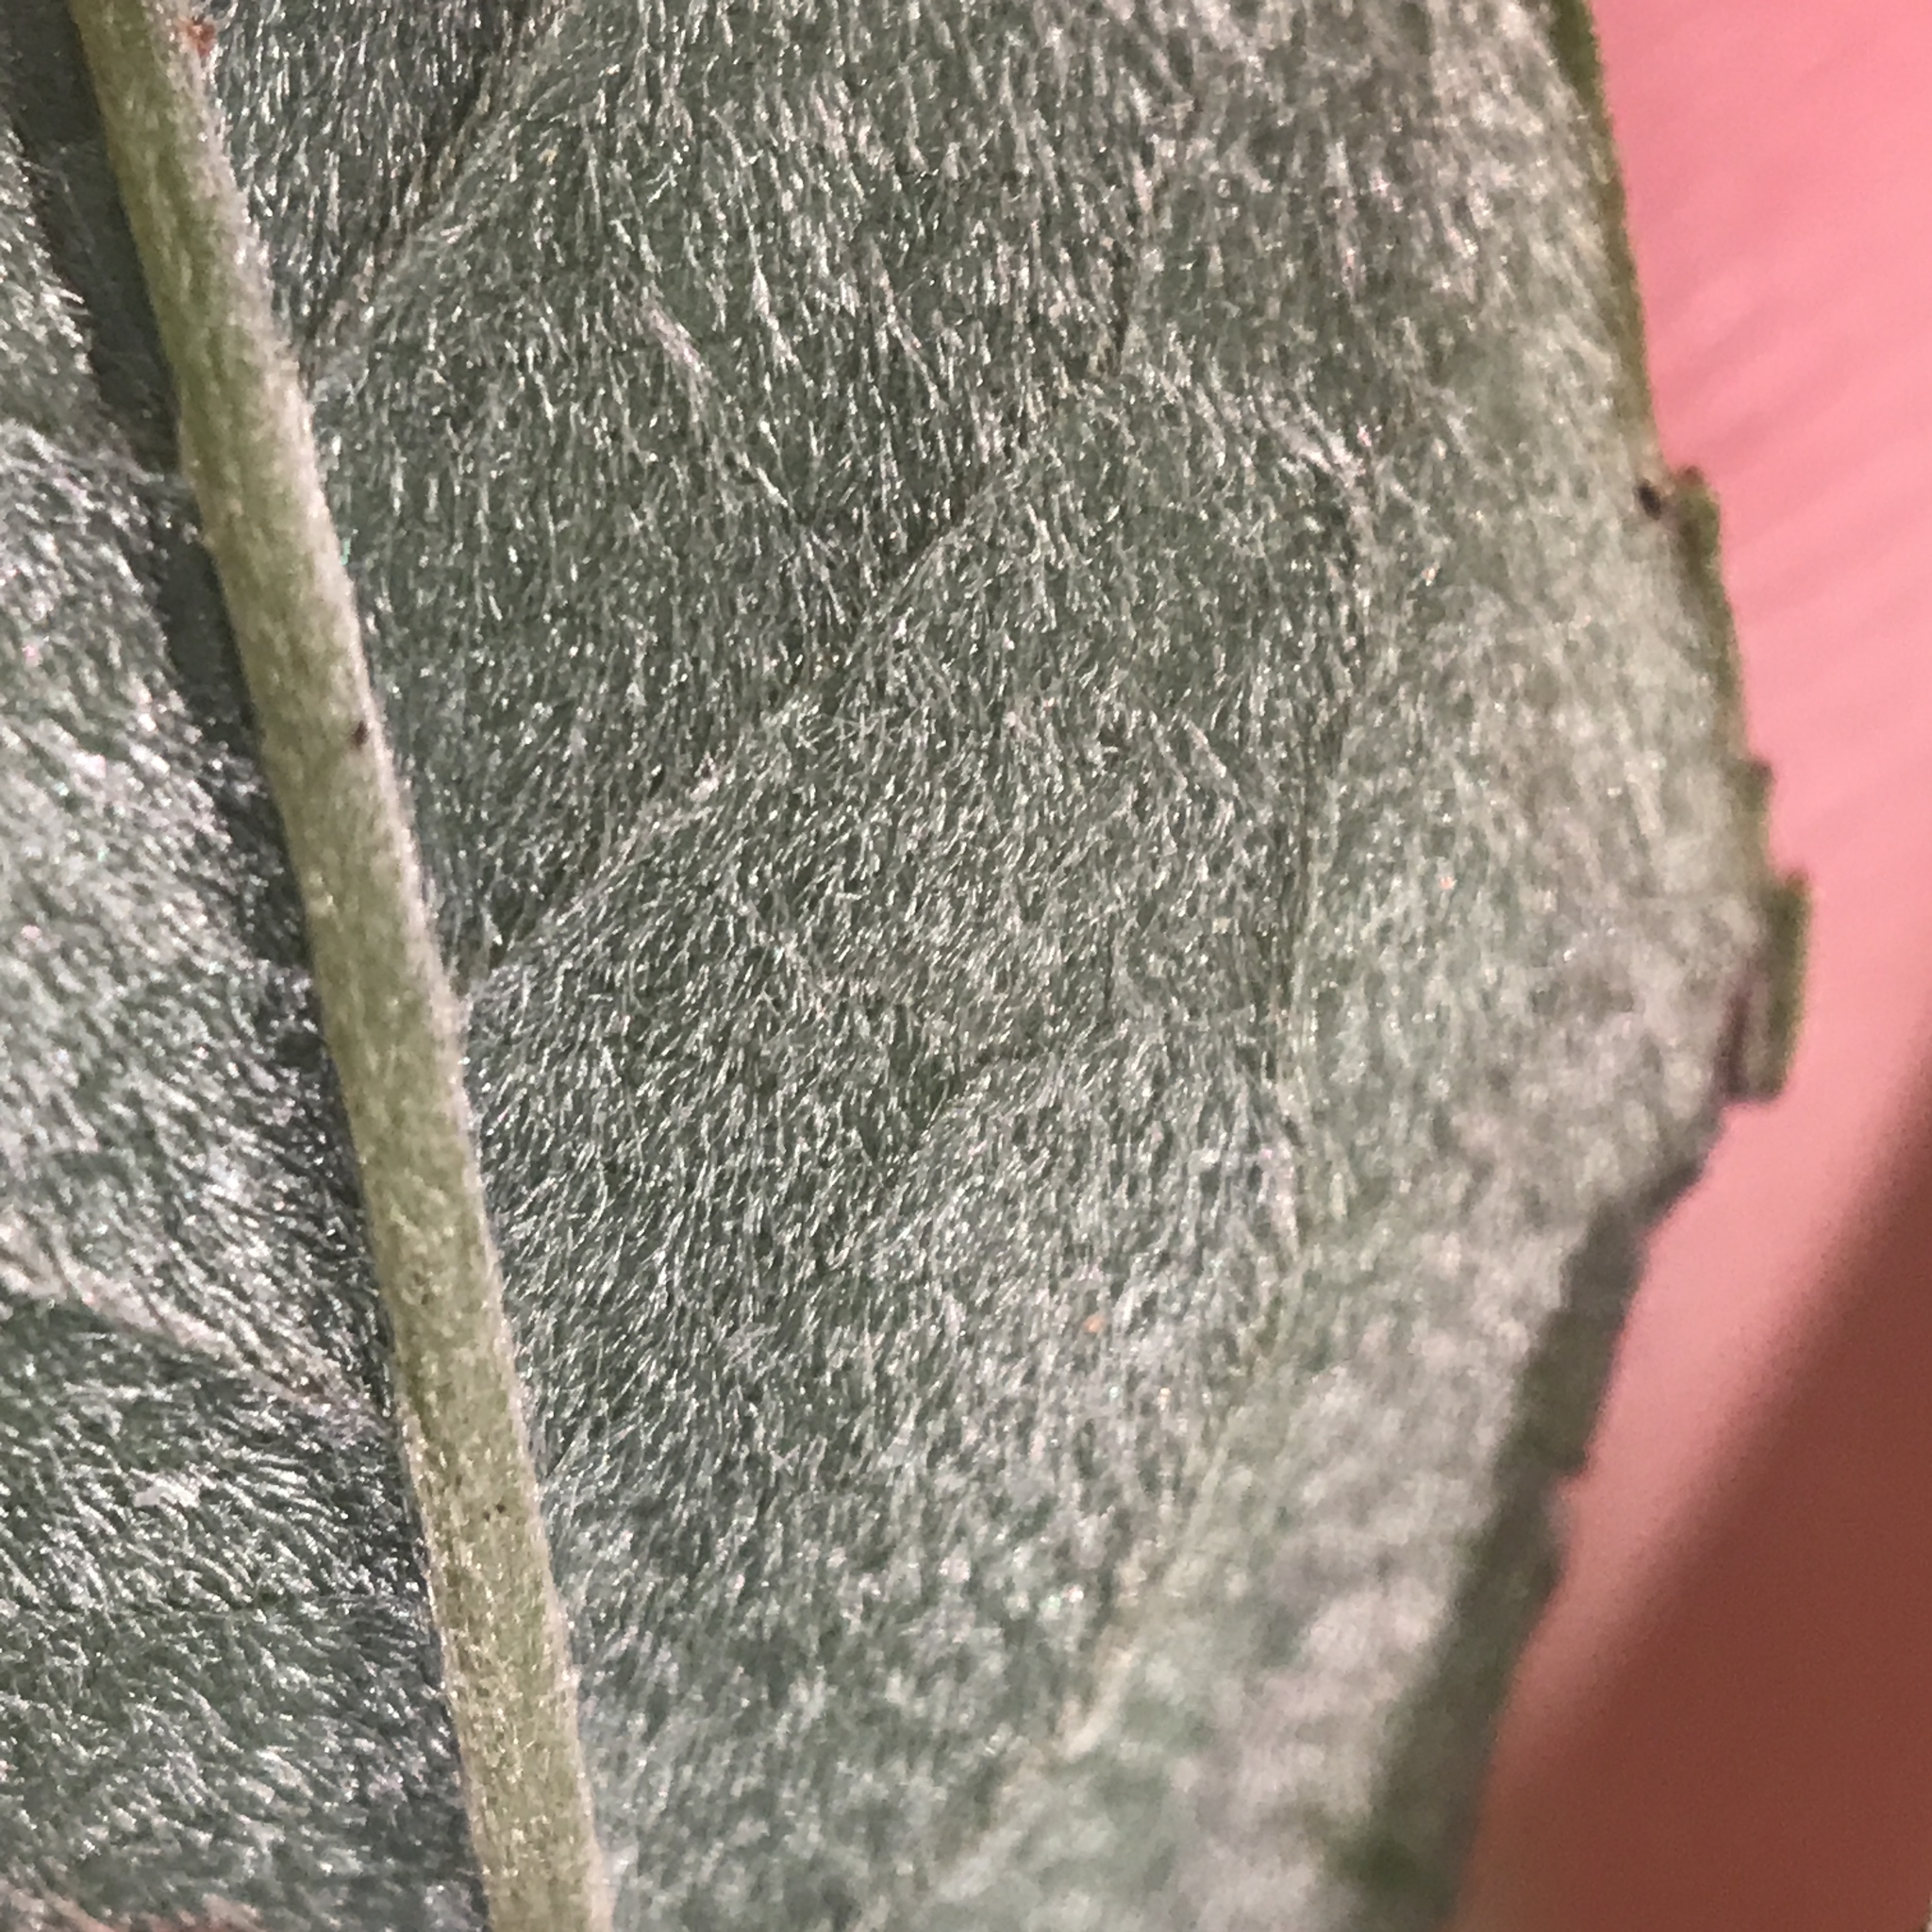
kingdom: Plantae
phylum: Tracheophyta
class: Magnoliopsida
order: Malpighiales
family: Salicaceae
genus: Salix
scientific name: Salix sericea
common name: Silky willow
